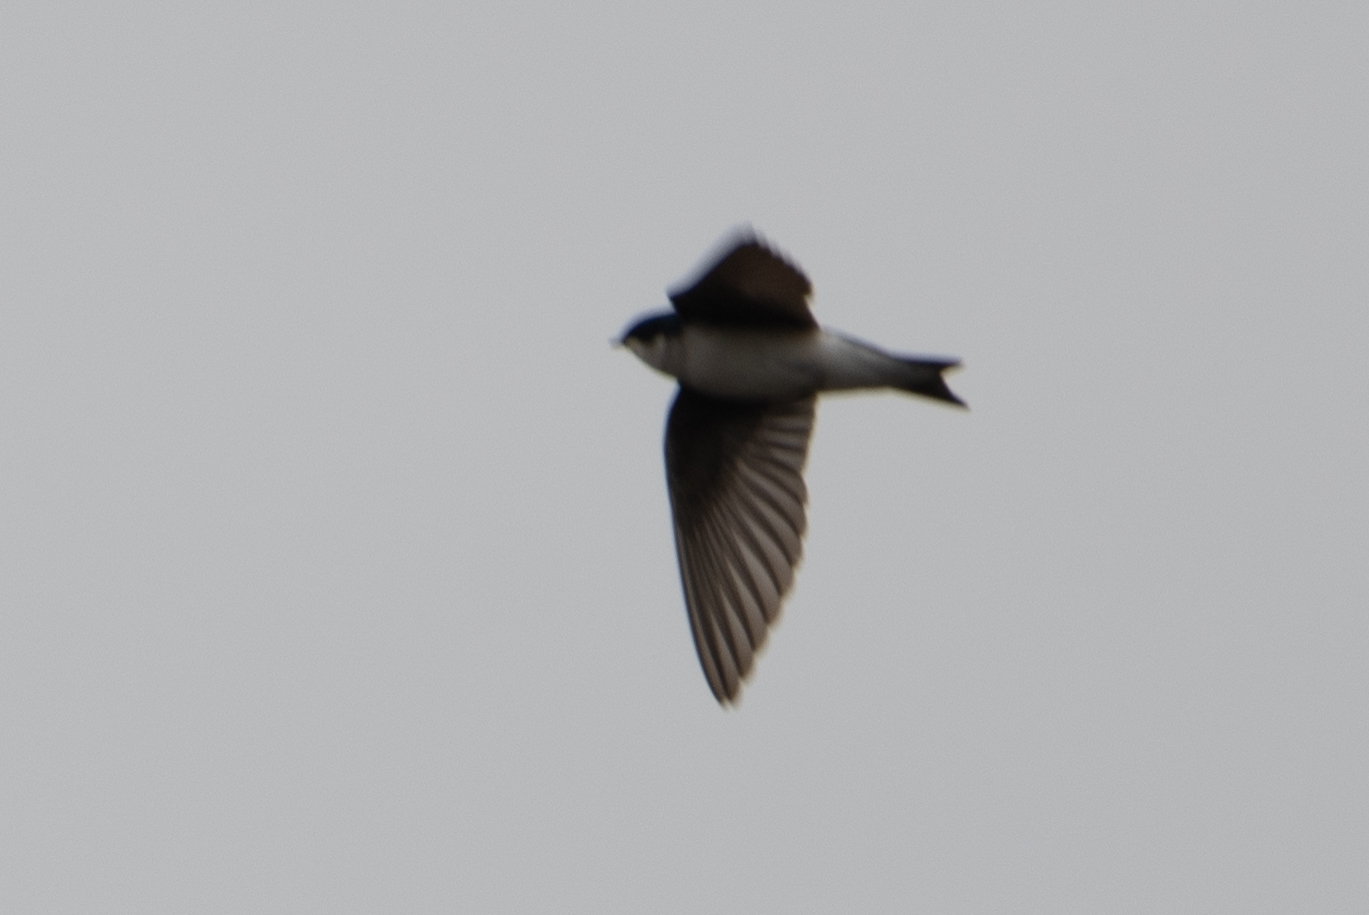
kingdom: Animalia
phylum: Chordata
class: Aves
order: Passeriformes
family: Hirundinidae
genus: Tachycineta
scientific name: Tachycineta bicolor
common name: Tree swallow
